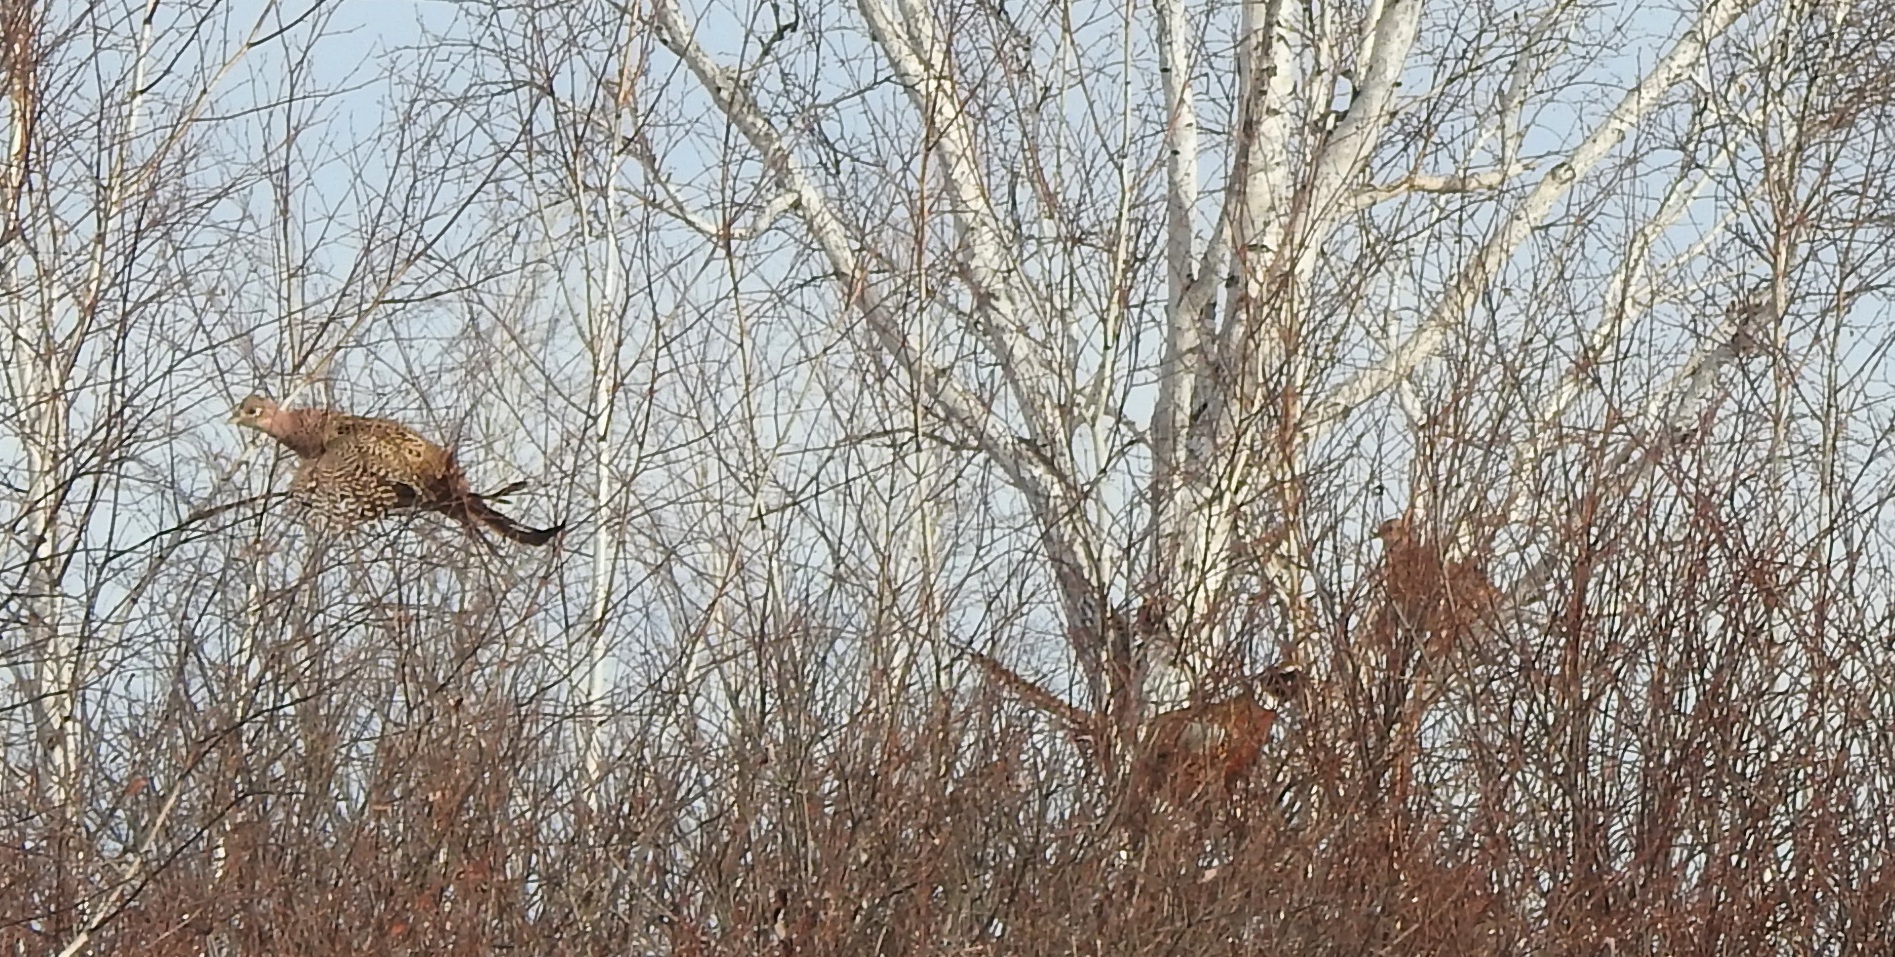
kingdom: Animalia
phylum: Chordata
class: Aves
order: Galliformes
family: Phasianidae
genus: Phasianus
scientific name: Phasianus colchicus
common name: Common pheasant
